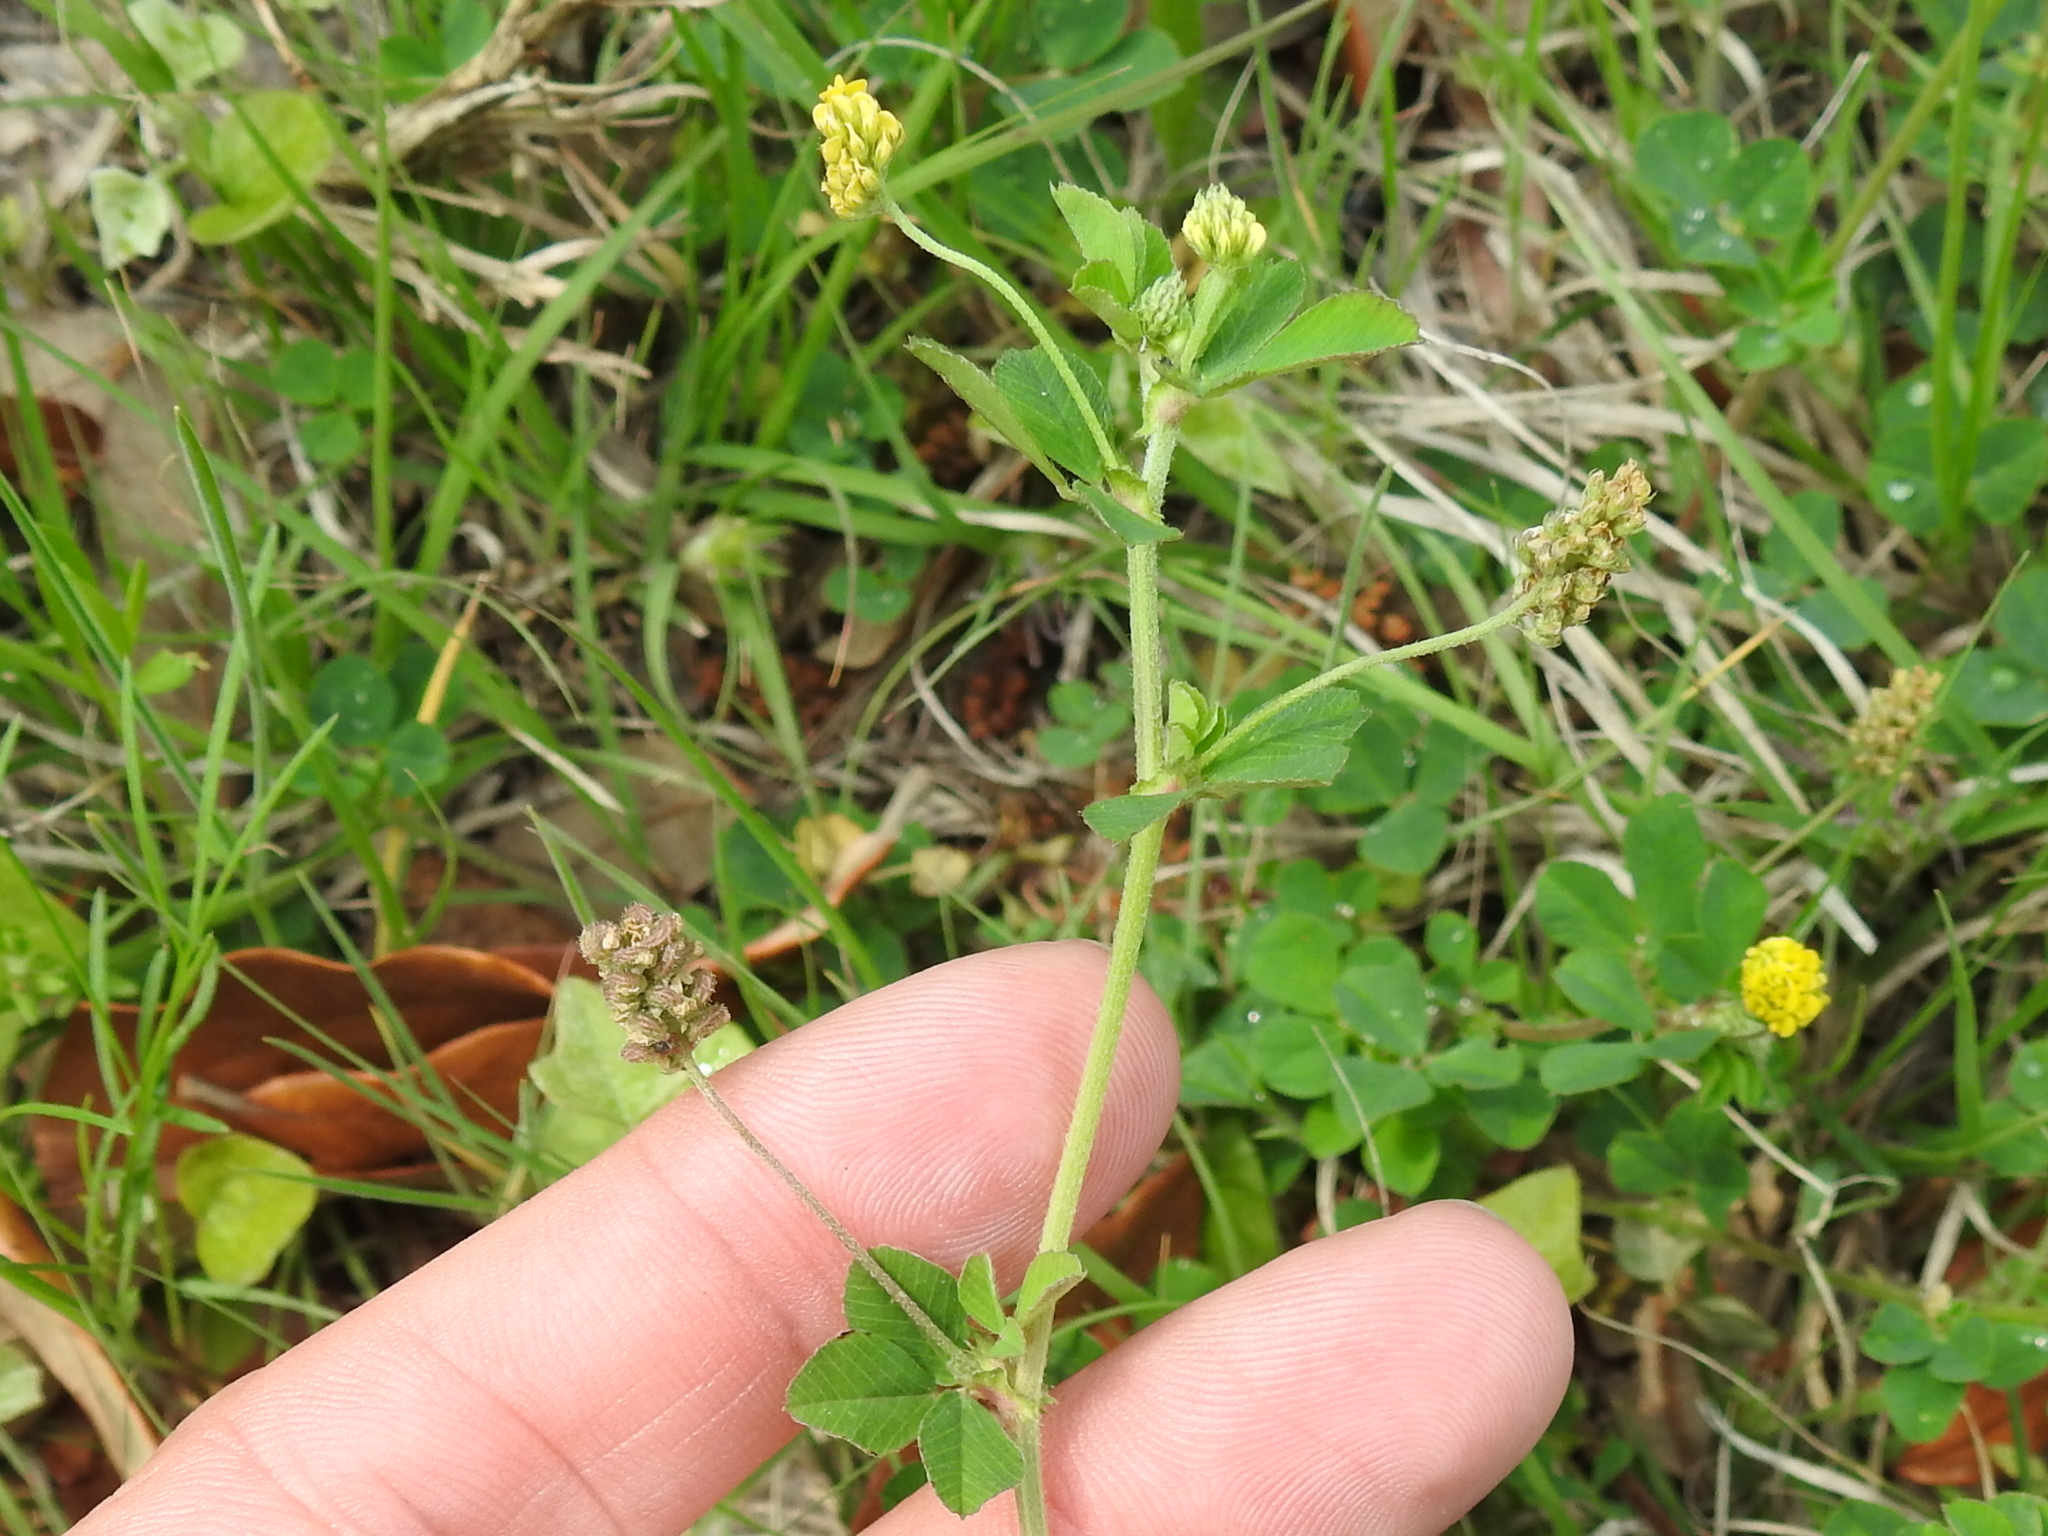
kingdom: Plantae
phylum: Tracheophyta
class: Magnoliopsida
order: Fabales
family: Fabaceae
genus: Medicago
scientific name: Medicago lupulina
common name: Black medick
